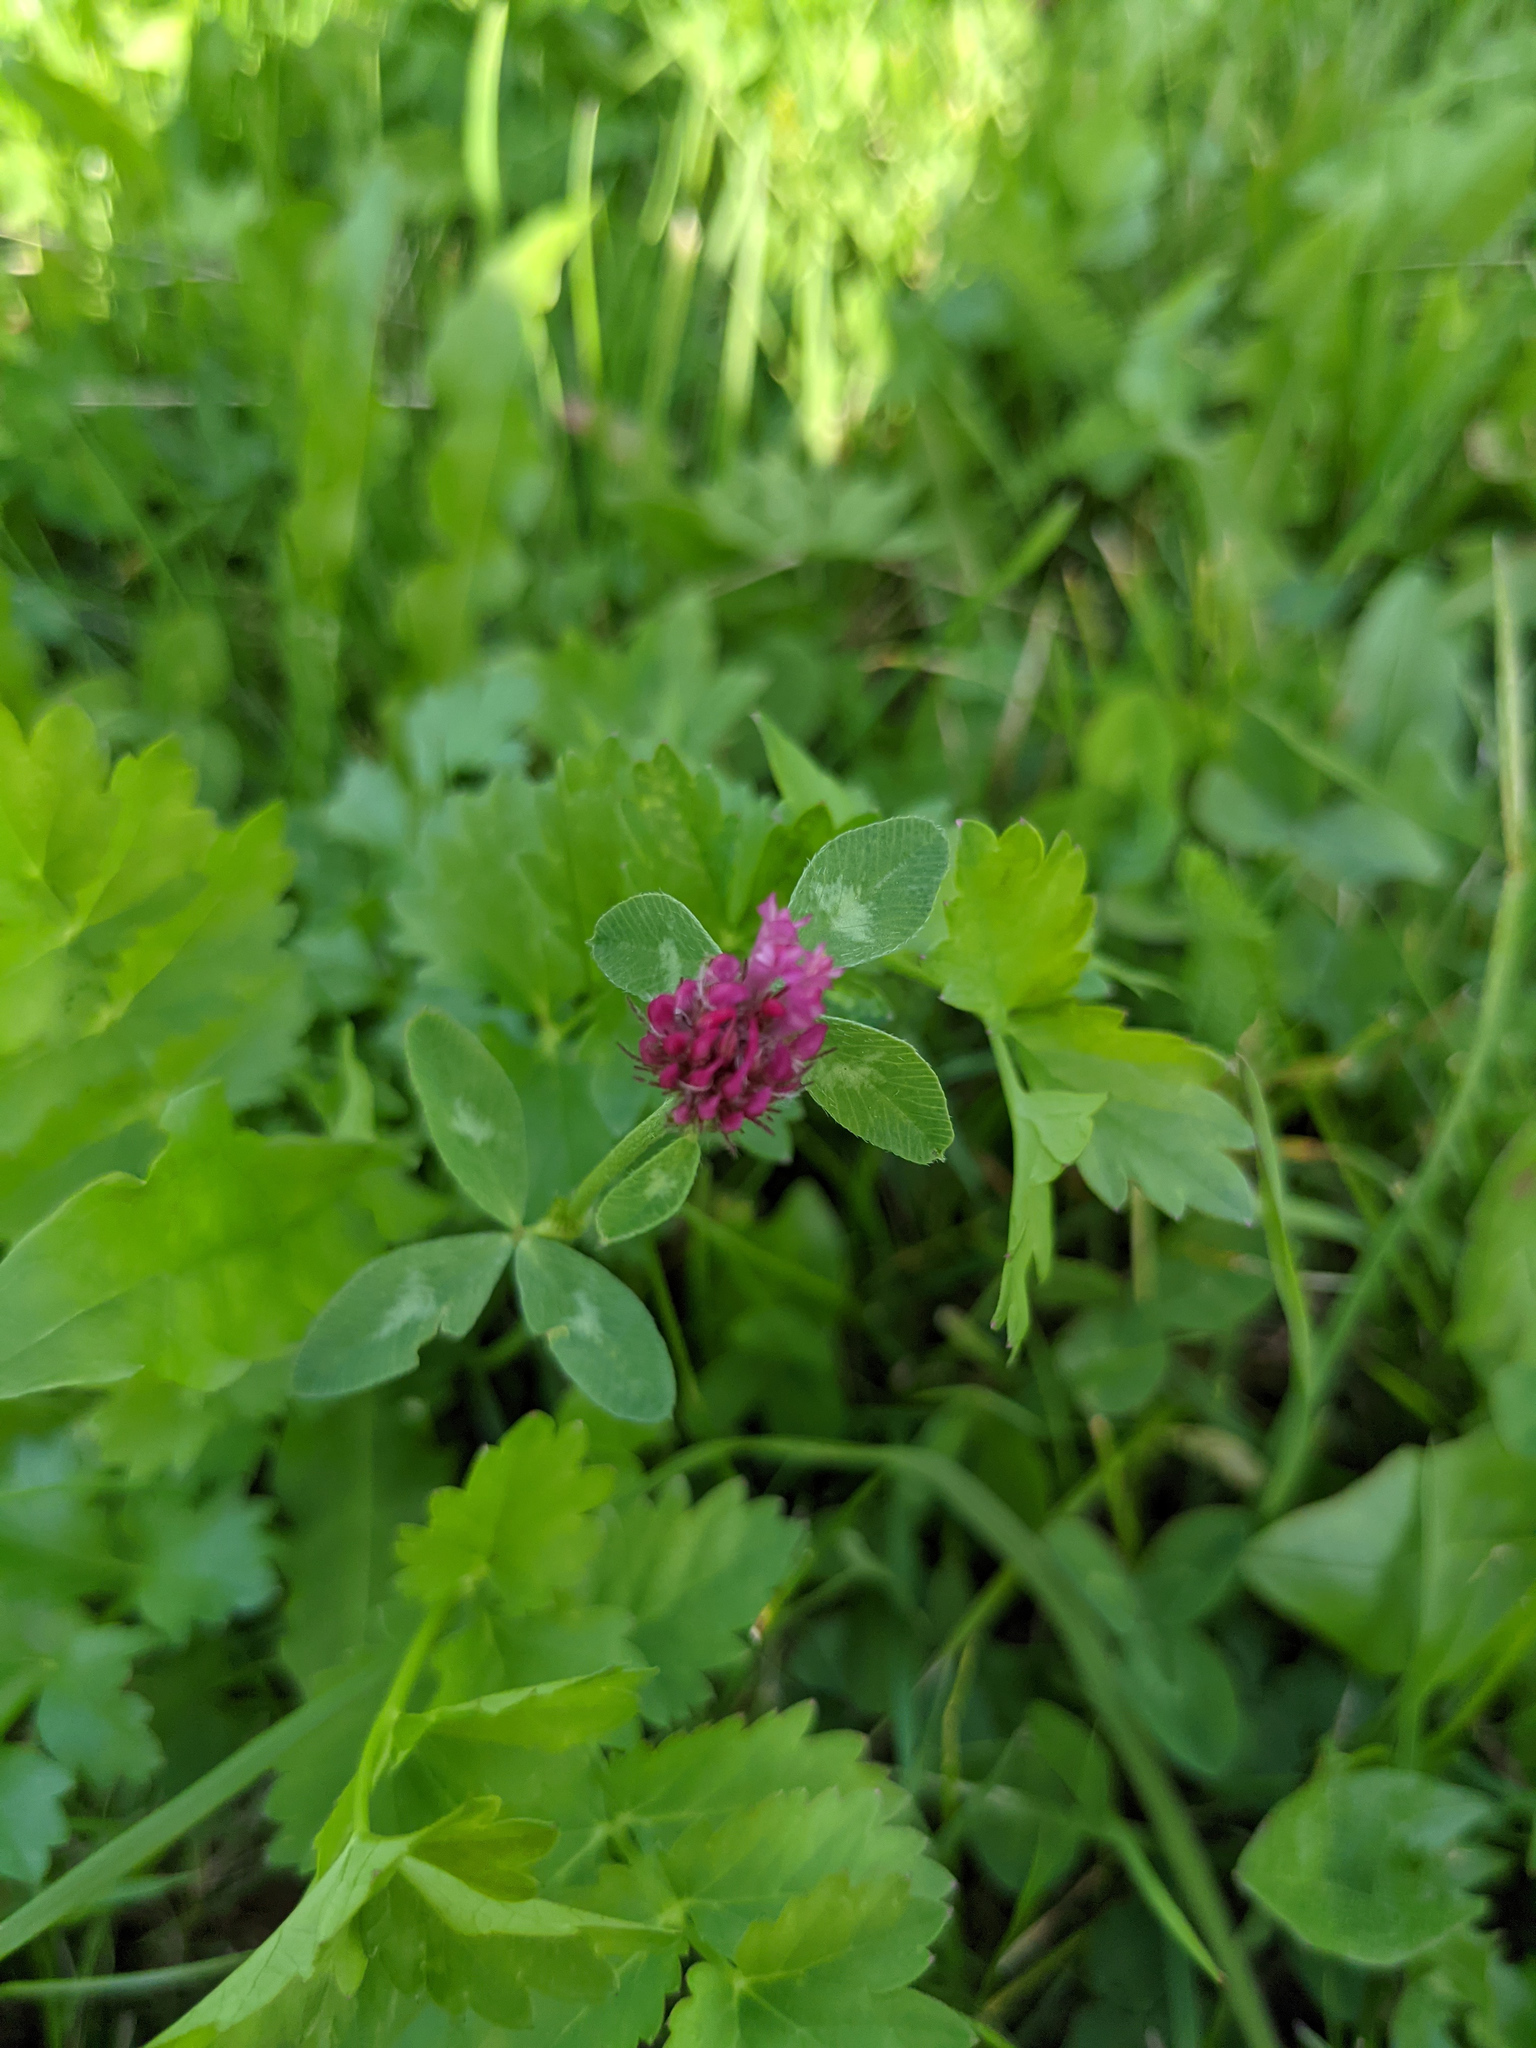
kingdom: Plantae
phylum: Tracheophyta
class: Magnoliopsida
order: Fabales
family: Fabaceae
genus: Trifolium
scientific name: Trifolium pratense
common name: Red clover
